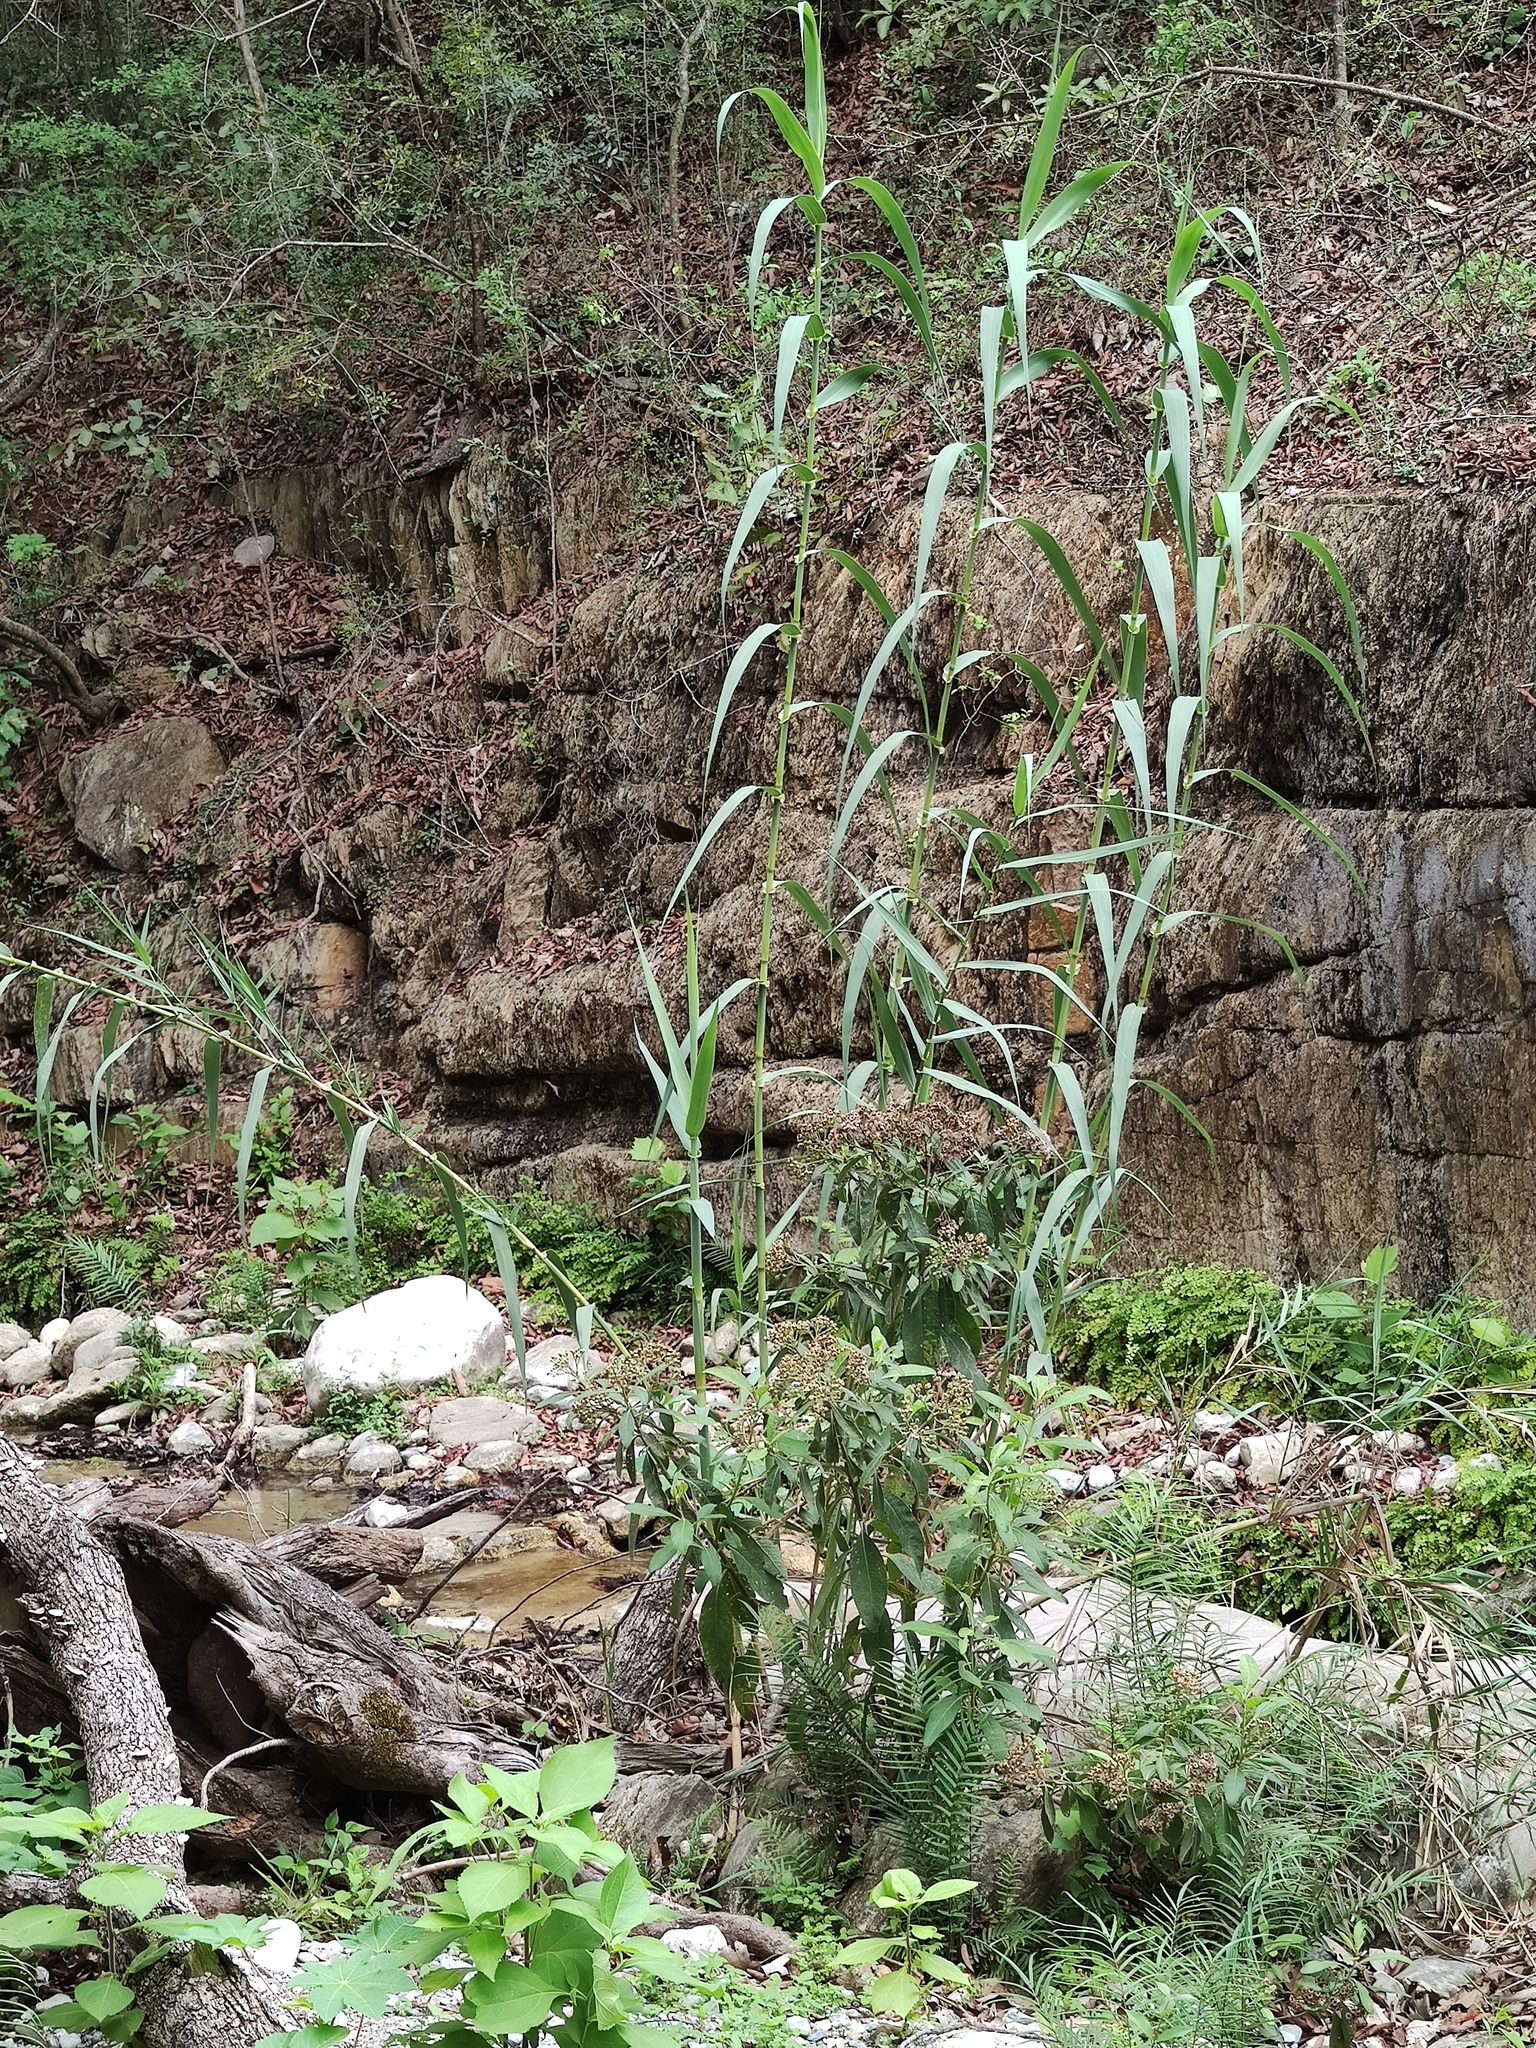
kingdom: Plantae
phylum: Tracheophyta
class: Liliopsida
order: Poales
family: Poaceae
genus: Arundo
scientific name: Arundo donax
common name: Giant reed
